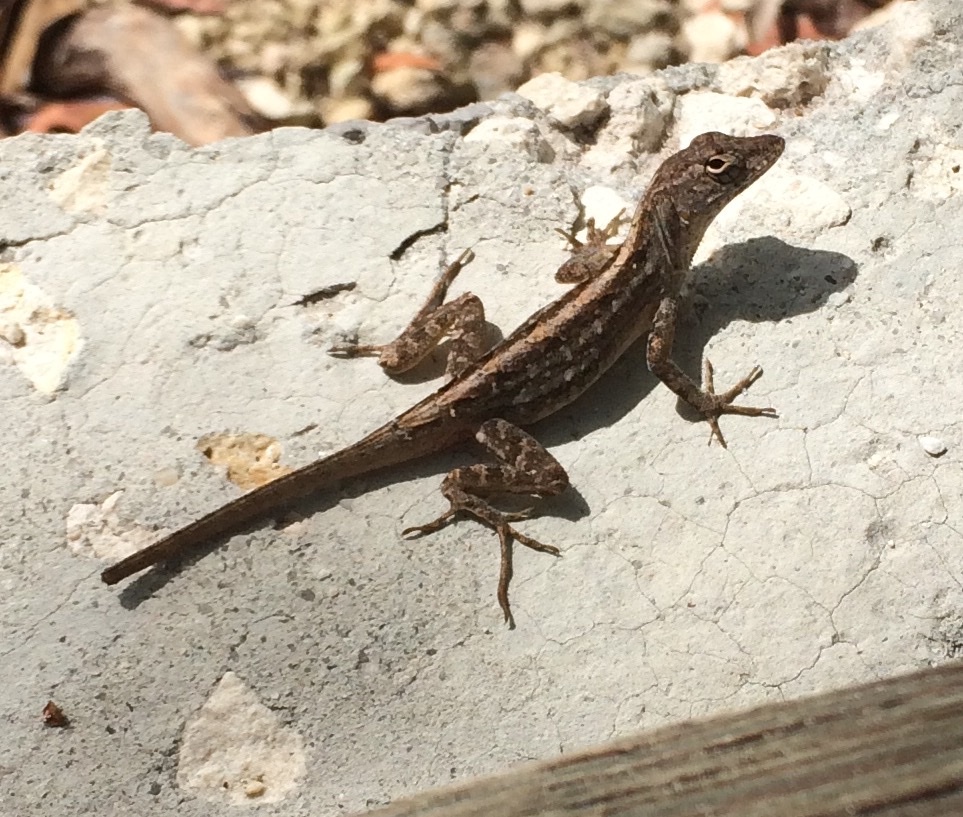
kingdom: Animalia
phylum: Chordata
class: Squamata
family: Dactyloidae
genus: Anolis
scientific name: Anolis sagrei
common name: Brown anole
